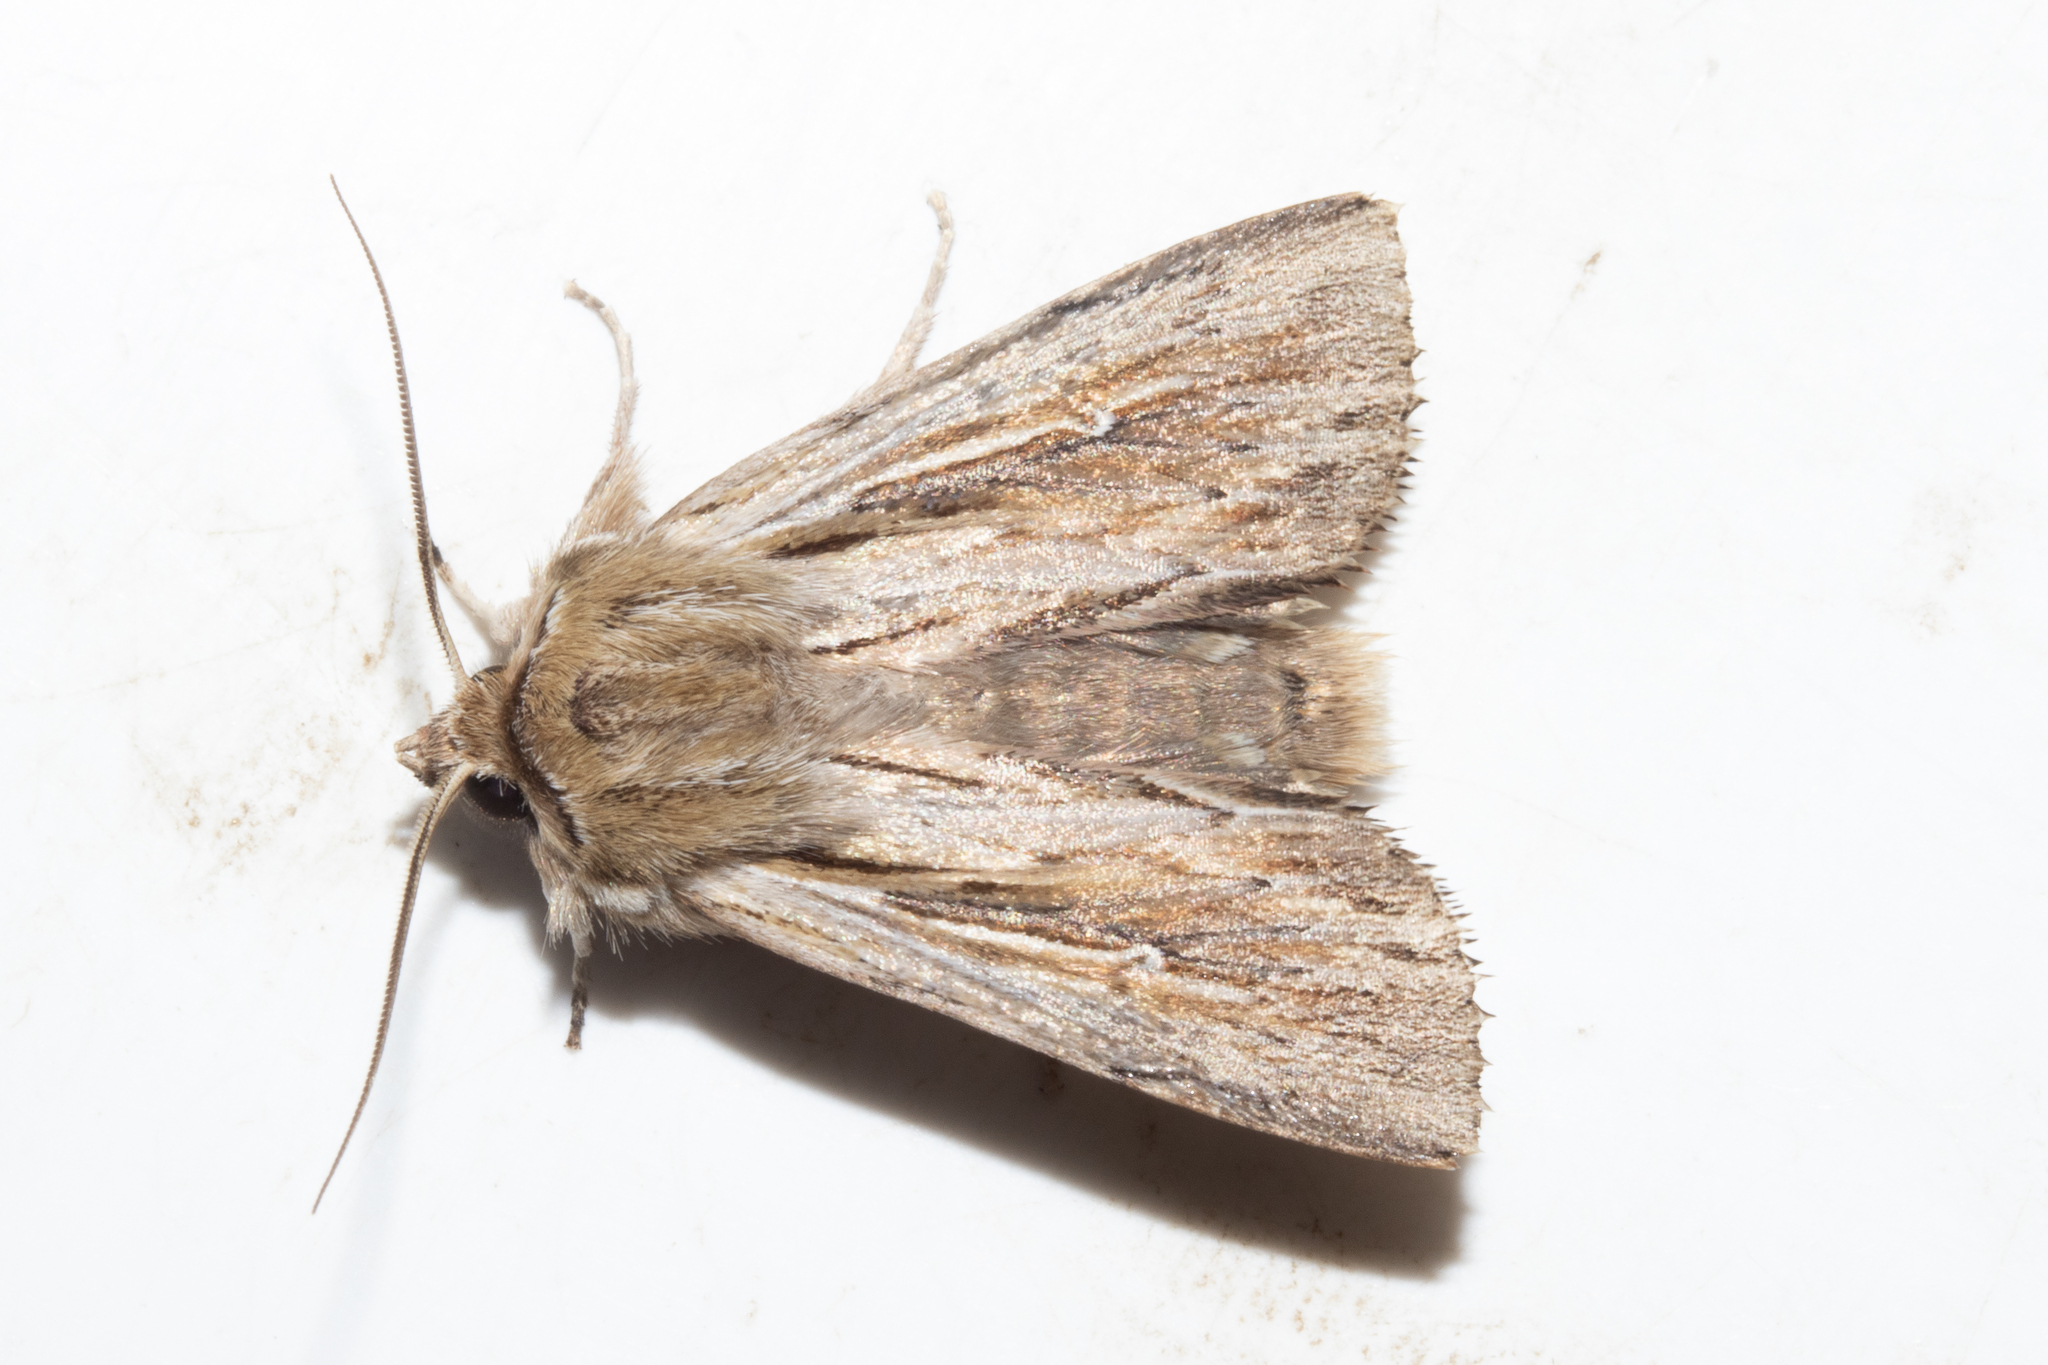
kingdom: Animalia
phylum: Arthropoda
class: Insecta
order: Lepidoptera
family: Noctuidae
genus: Persectania
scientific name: Persectania aversa
